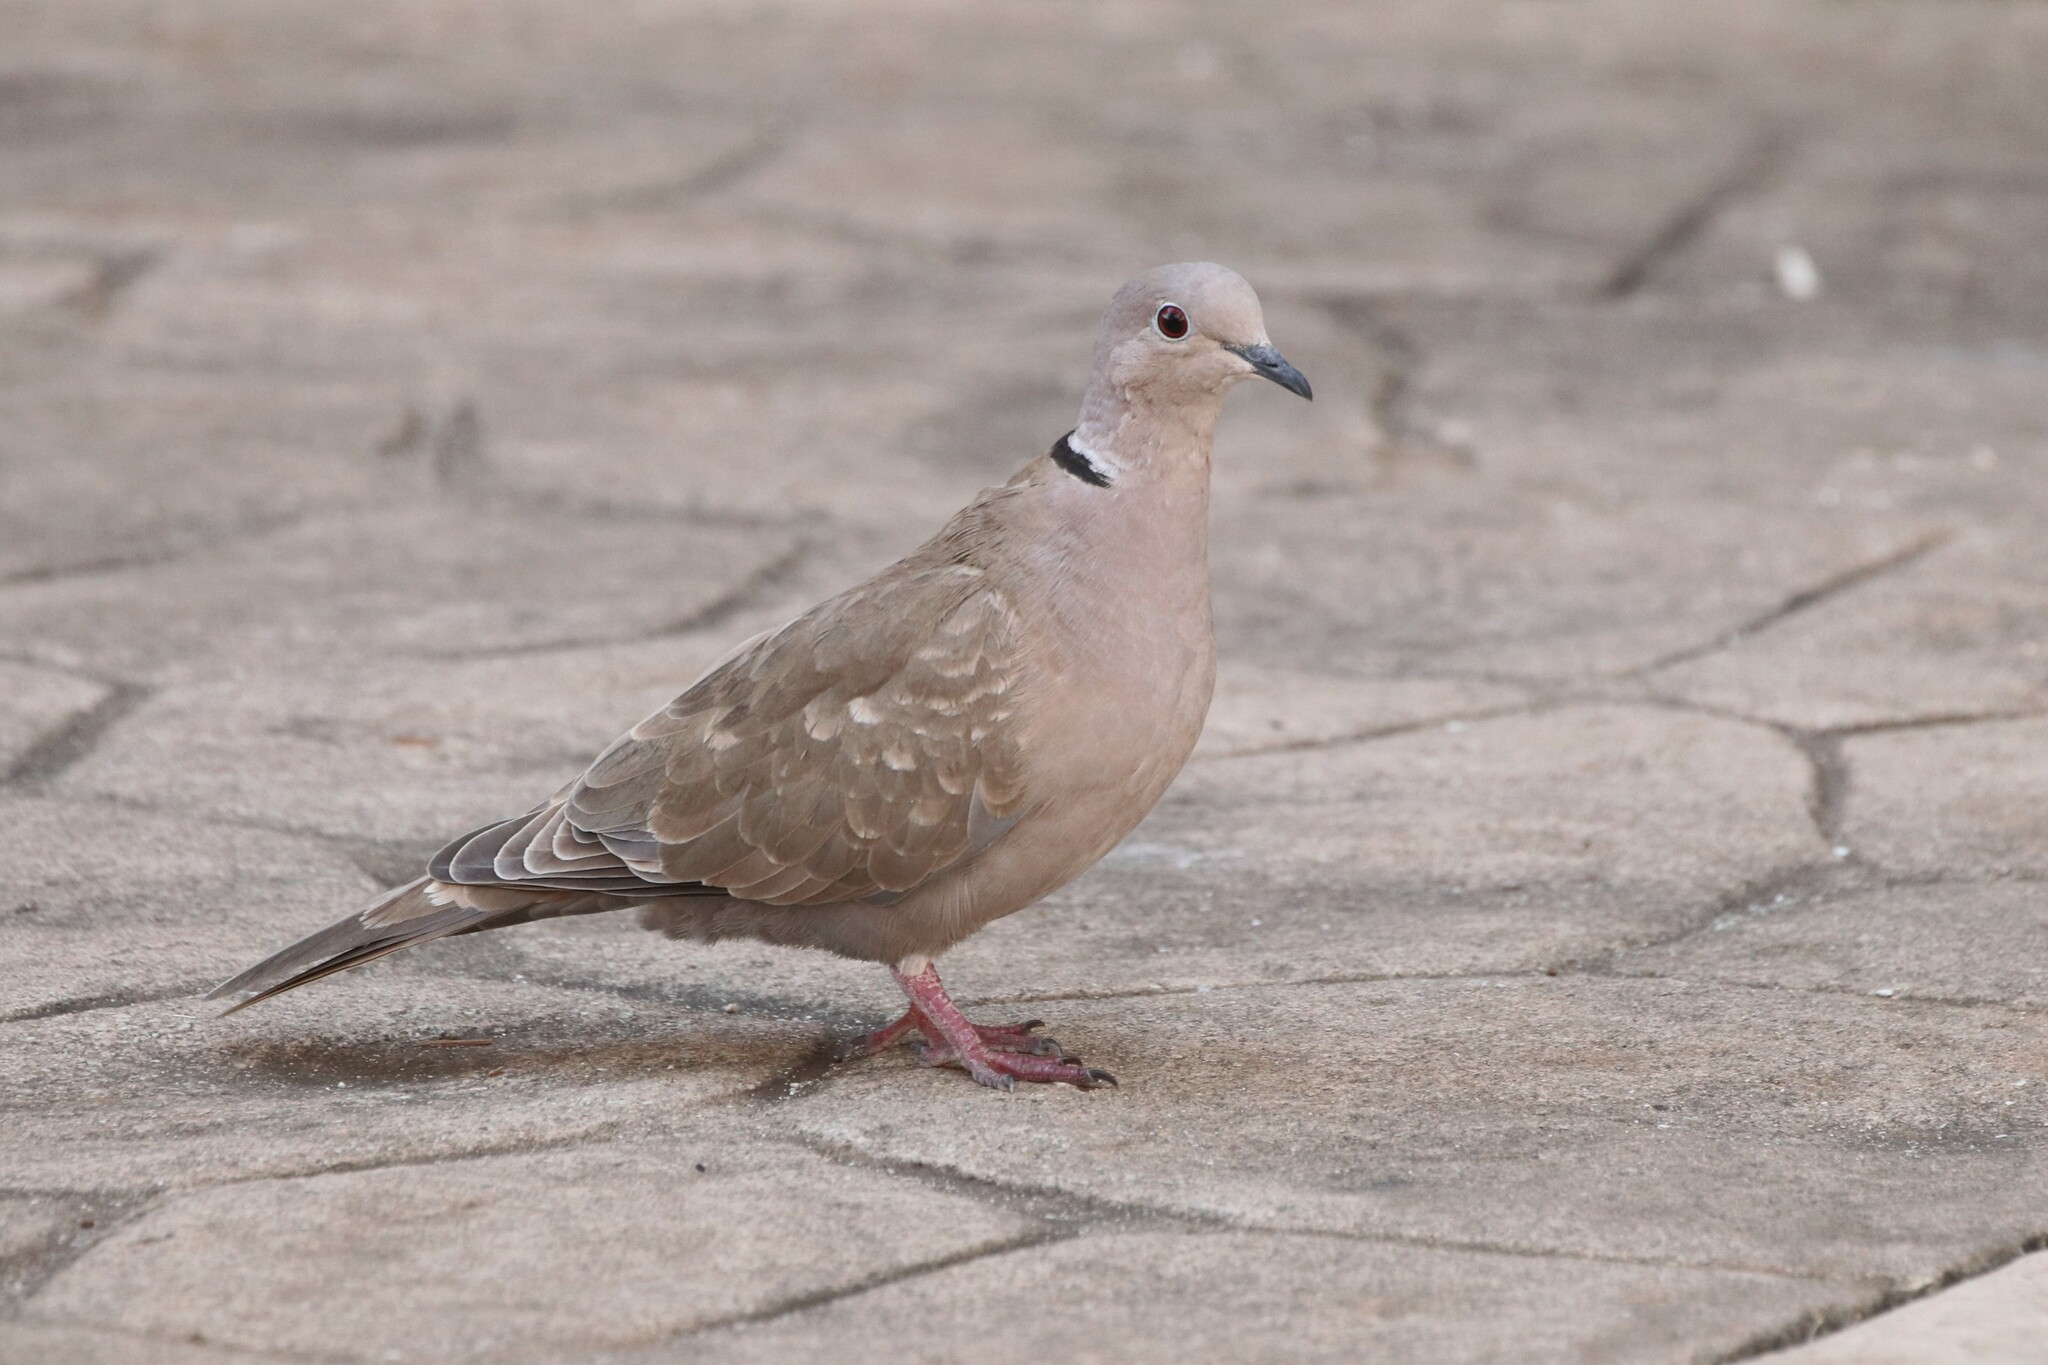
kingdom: Animalia
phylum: Chordata
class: Aves
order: Columbiformes
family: Columbidae
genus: Streptopelia
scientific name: Streptopelia decaocto
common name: Eurasian collared dove
